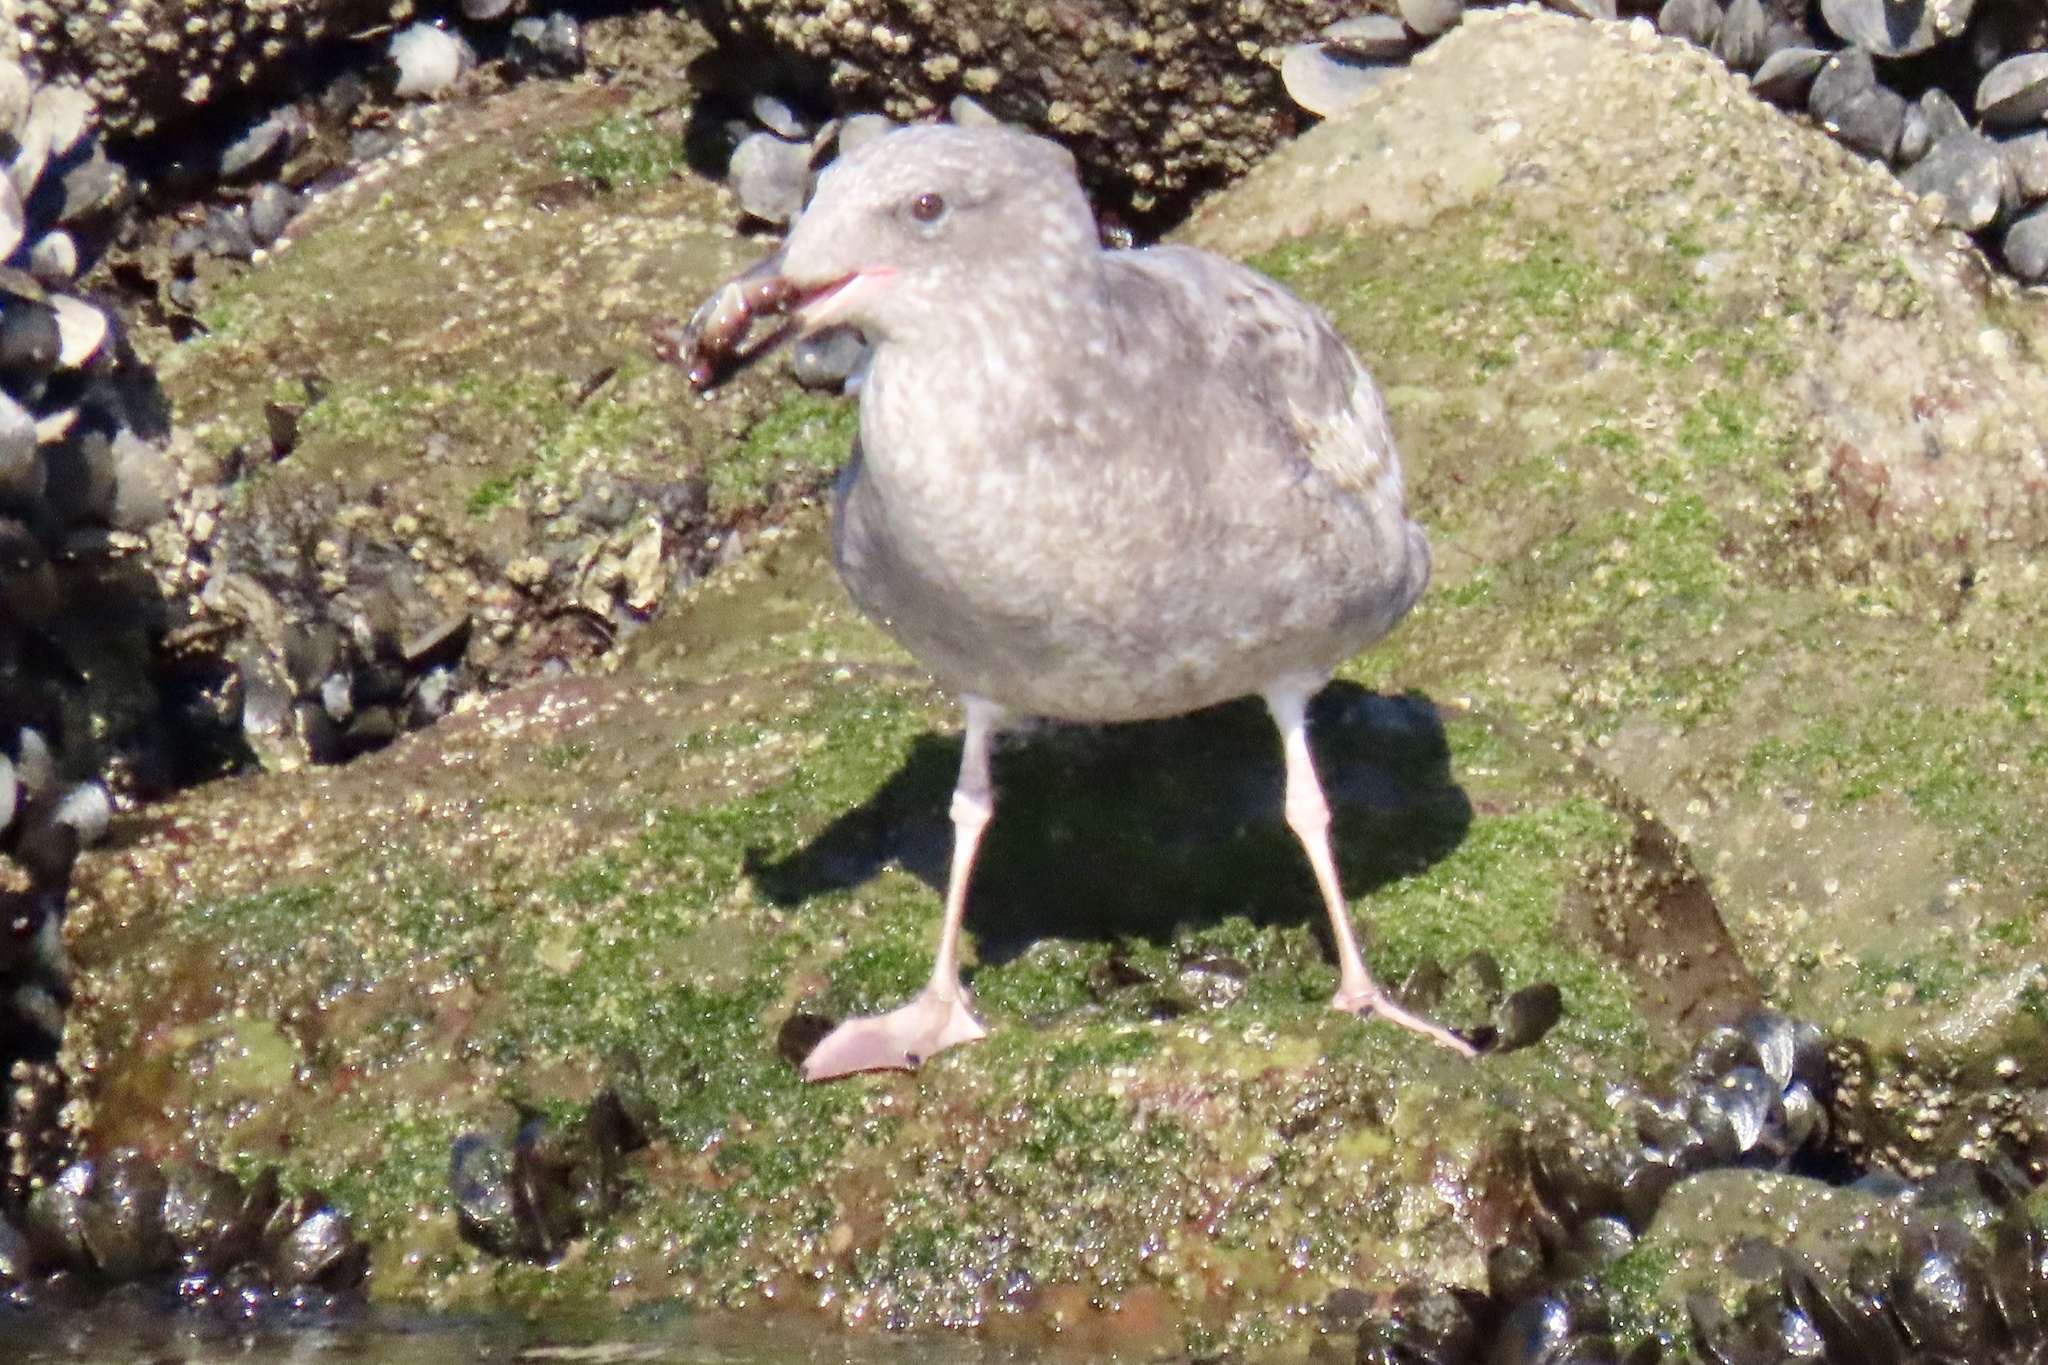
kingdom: Animalia
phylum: Chordata
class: Aves
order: Charadriiformes
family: Laridae
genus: Larus
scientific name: Larus occidentalis
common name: Western gull
